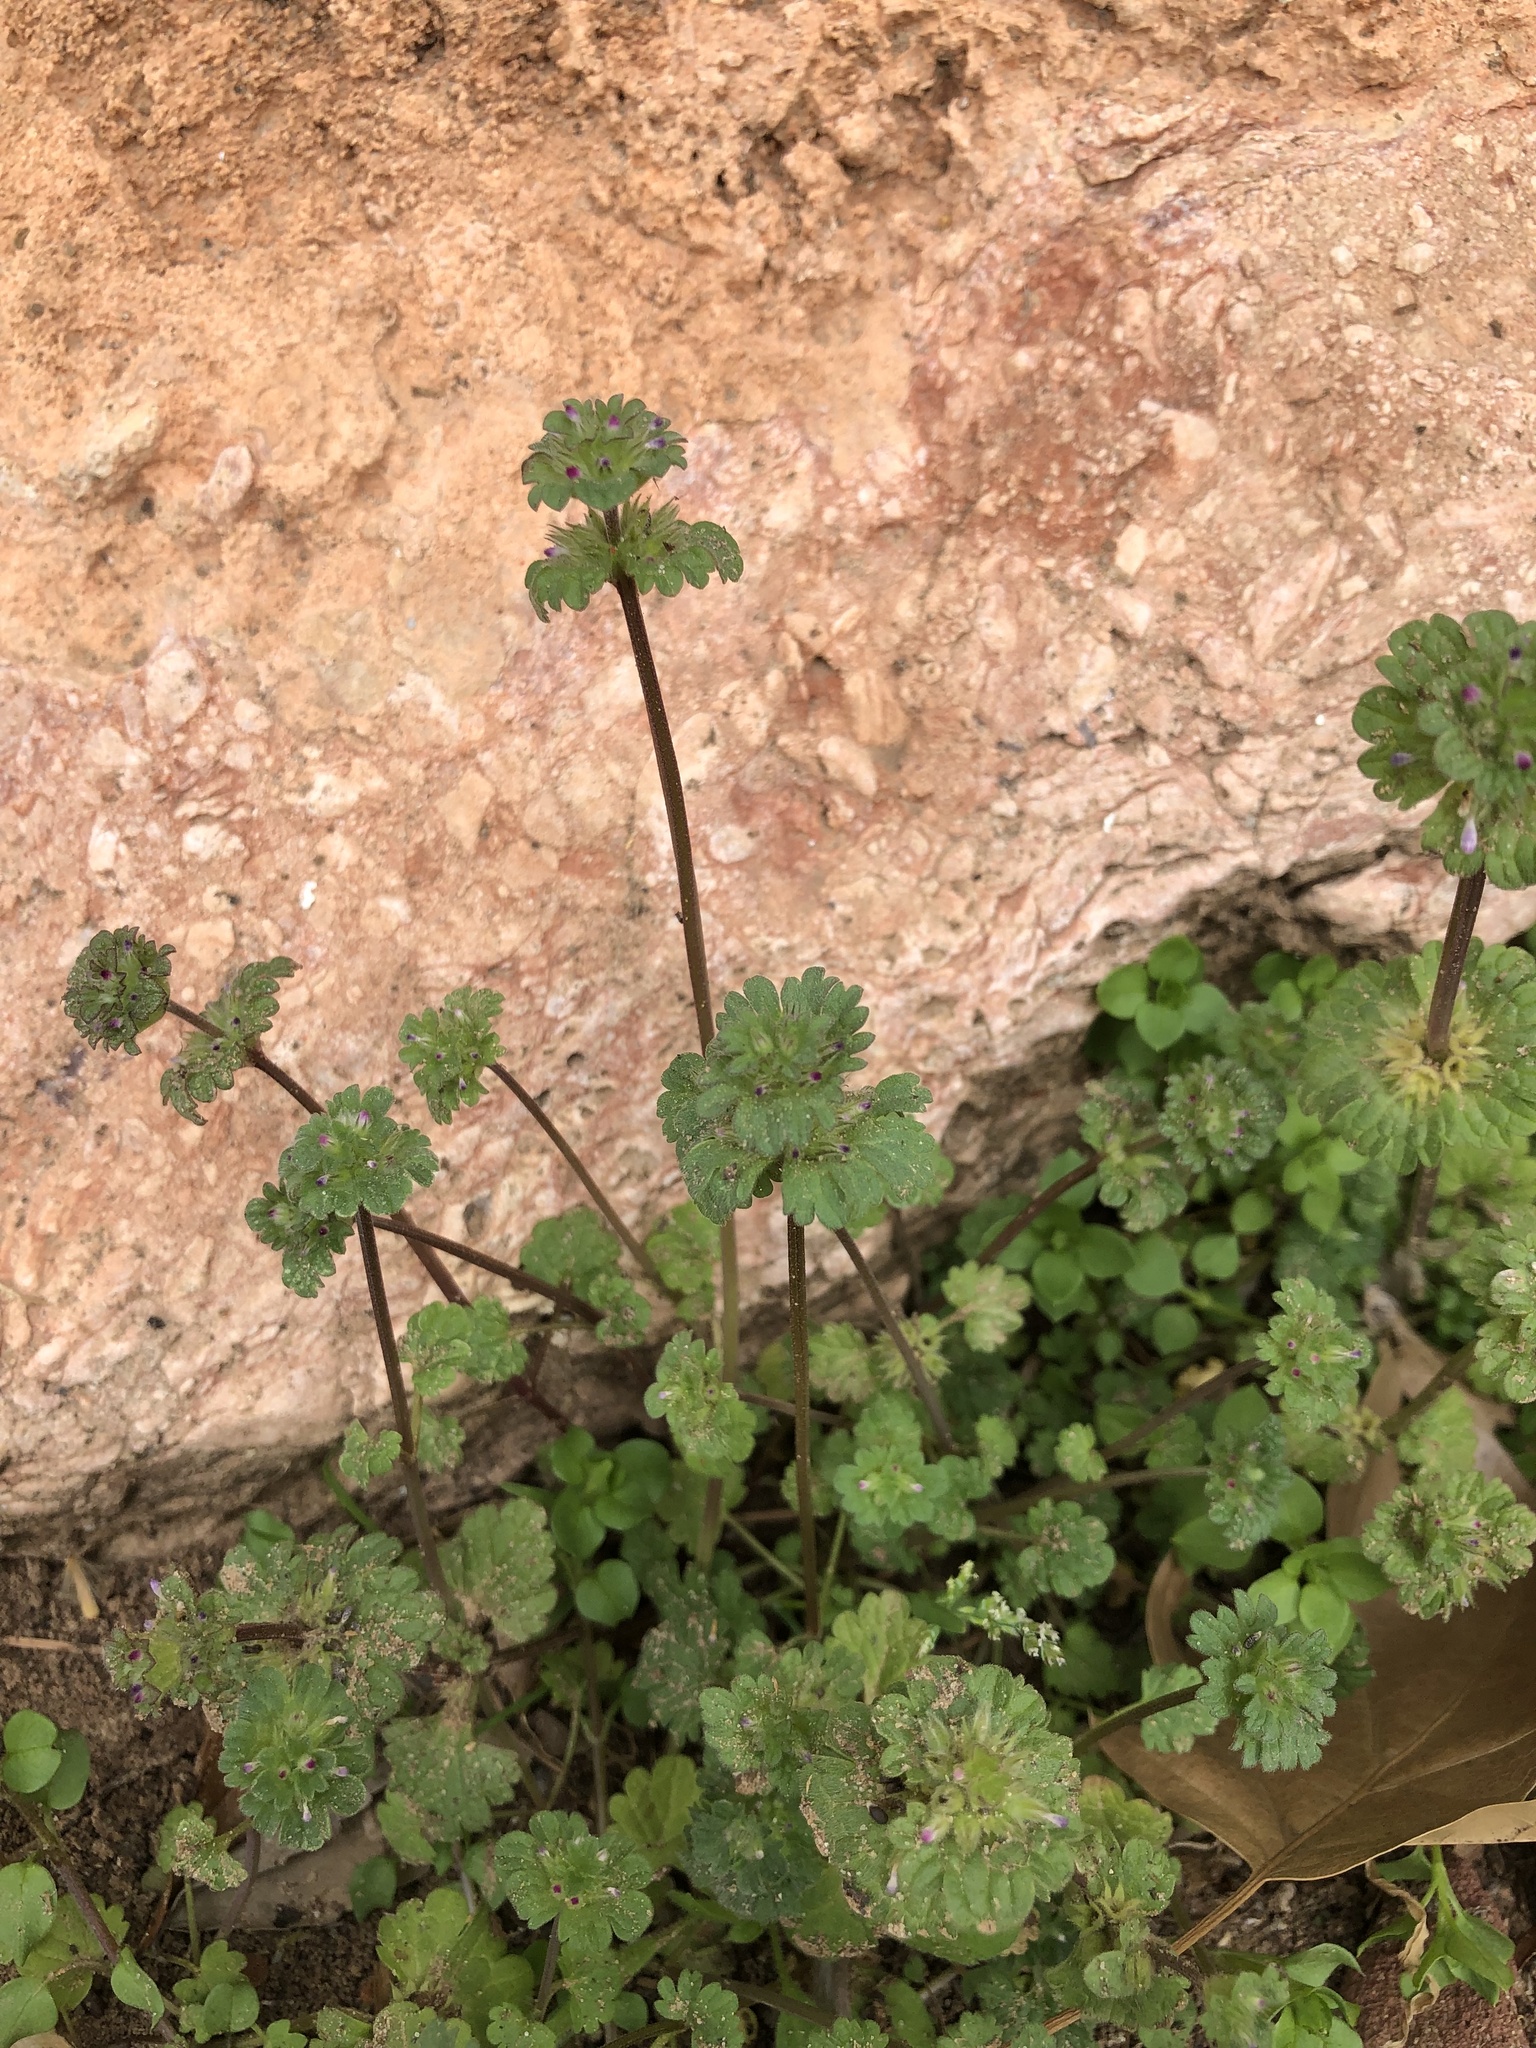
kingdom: Plantae
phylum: Tracheophyta
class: Magnoliopsida
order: Lamiales
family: Lamiaceae
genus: Lamium
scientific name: Lamium amplexicaule
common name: Henbit dead-nettle
